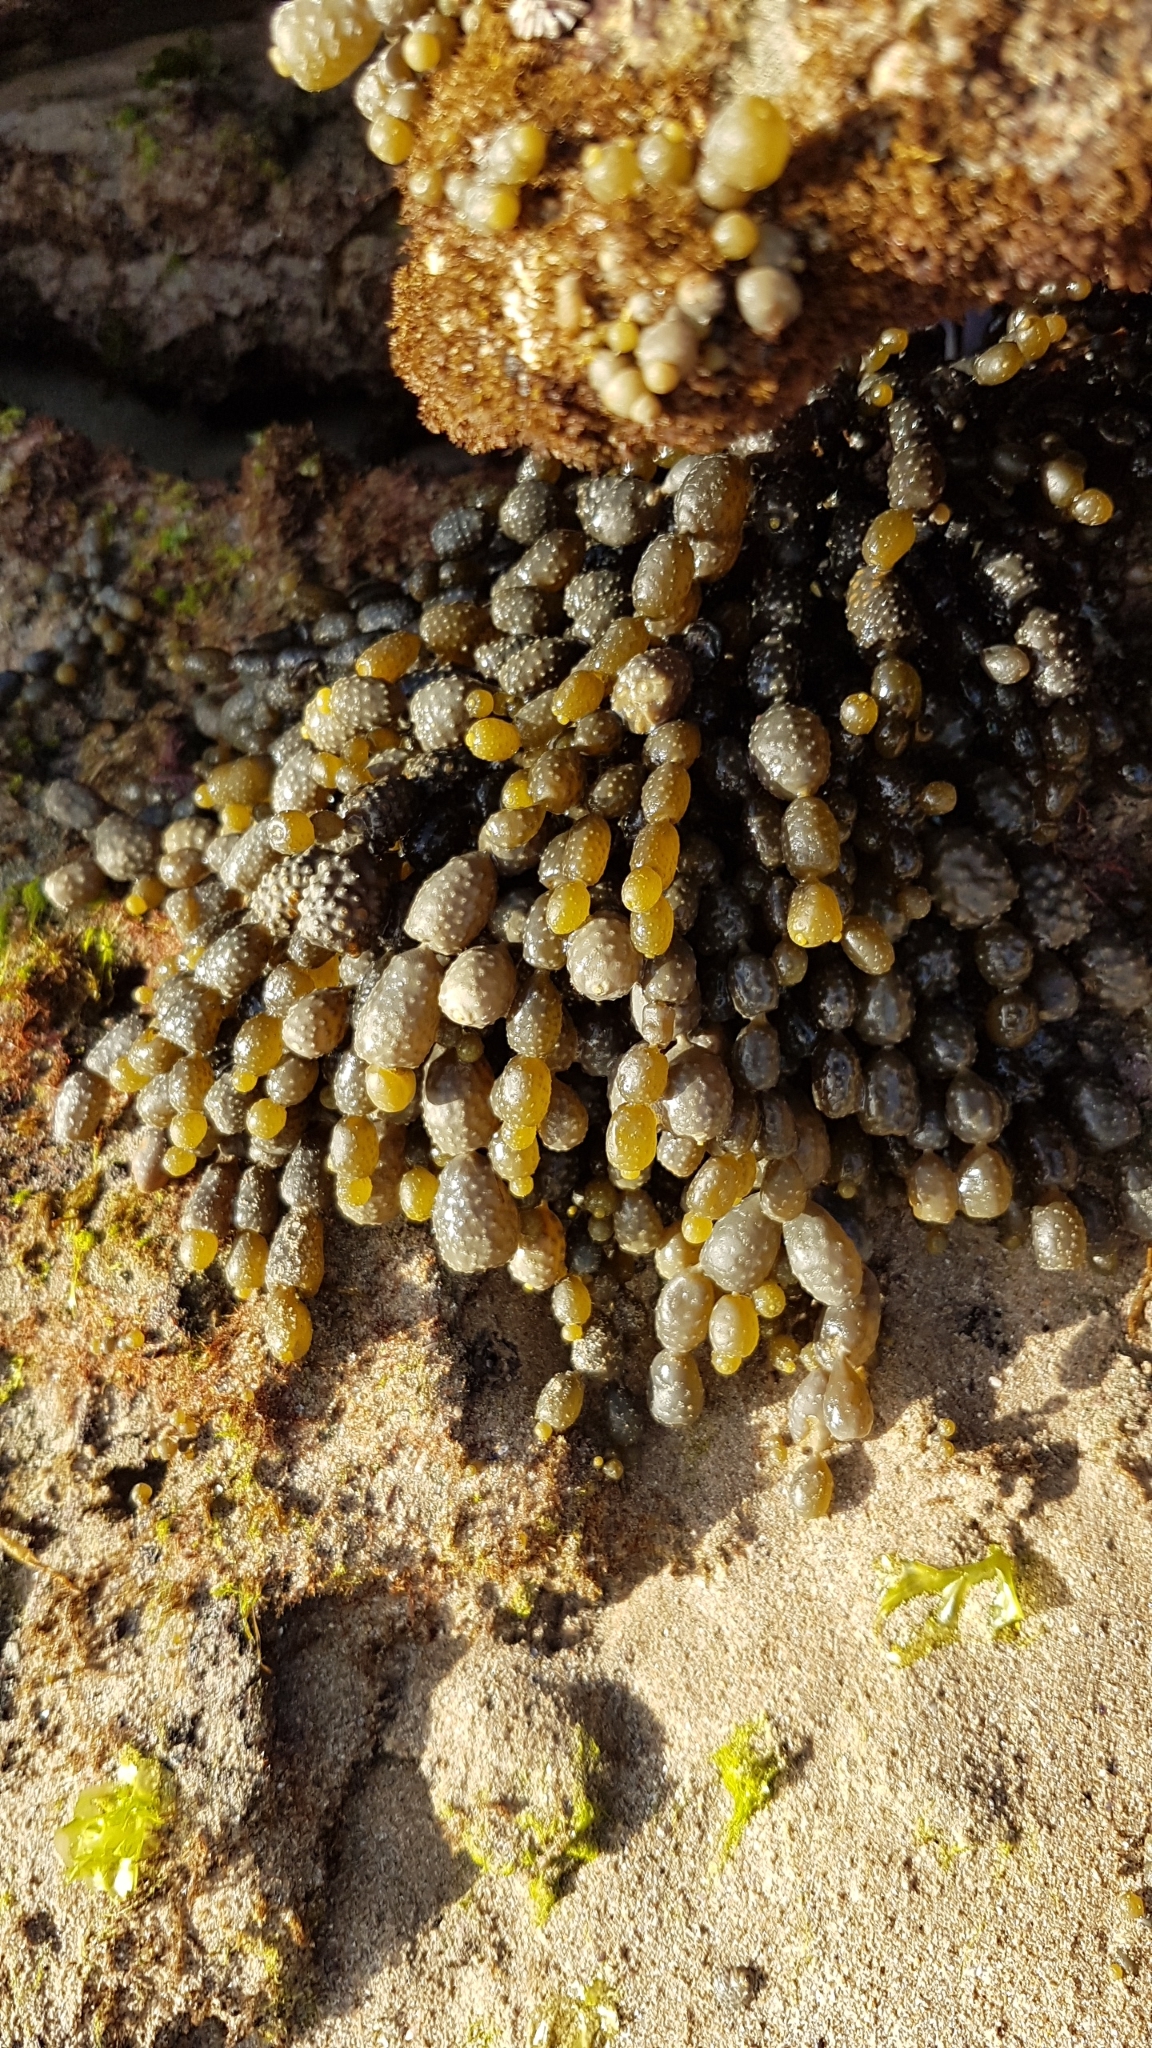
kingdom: Chromista
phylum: Ochrophyta
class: Phaeophyceae
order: Fucales
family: Hormosiraceae
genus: Hormosira
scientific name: Hormosira banksii
